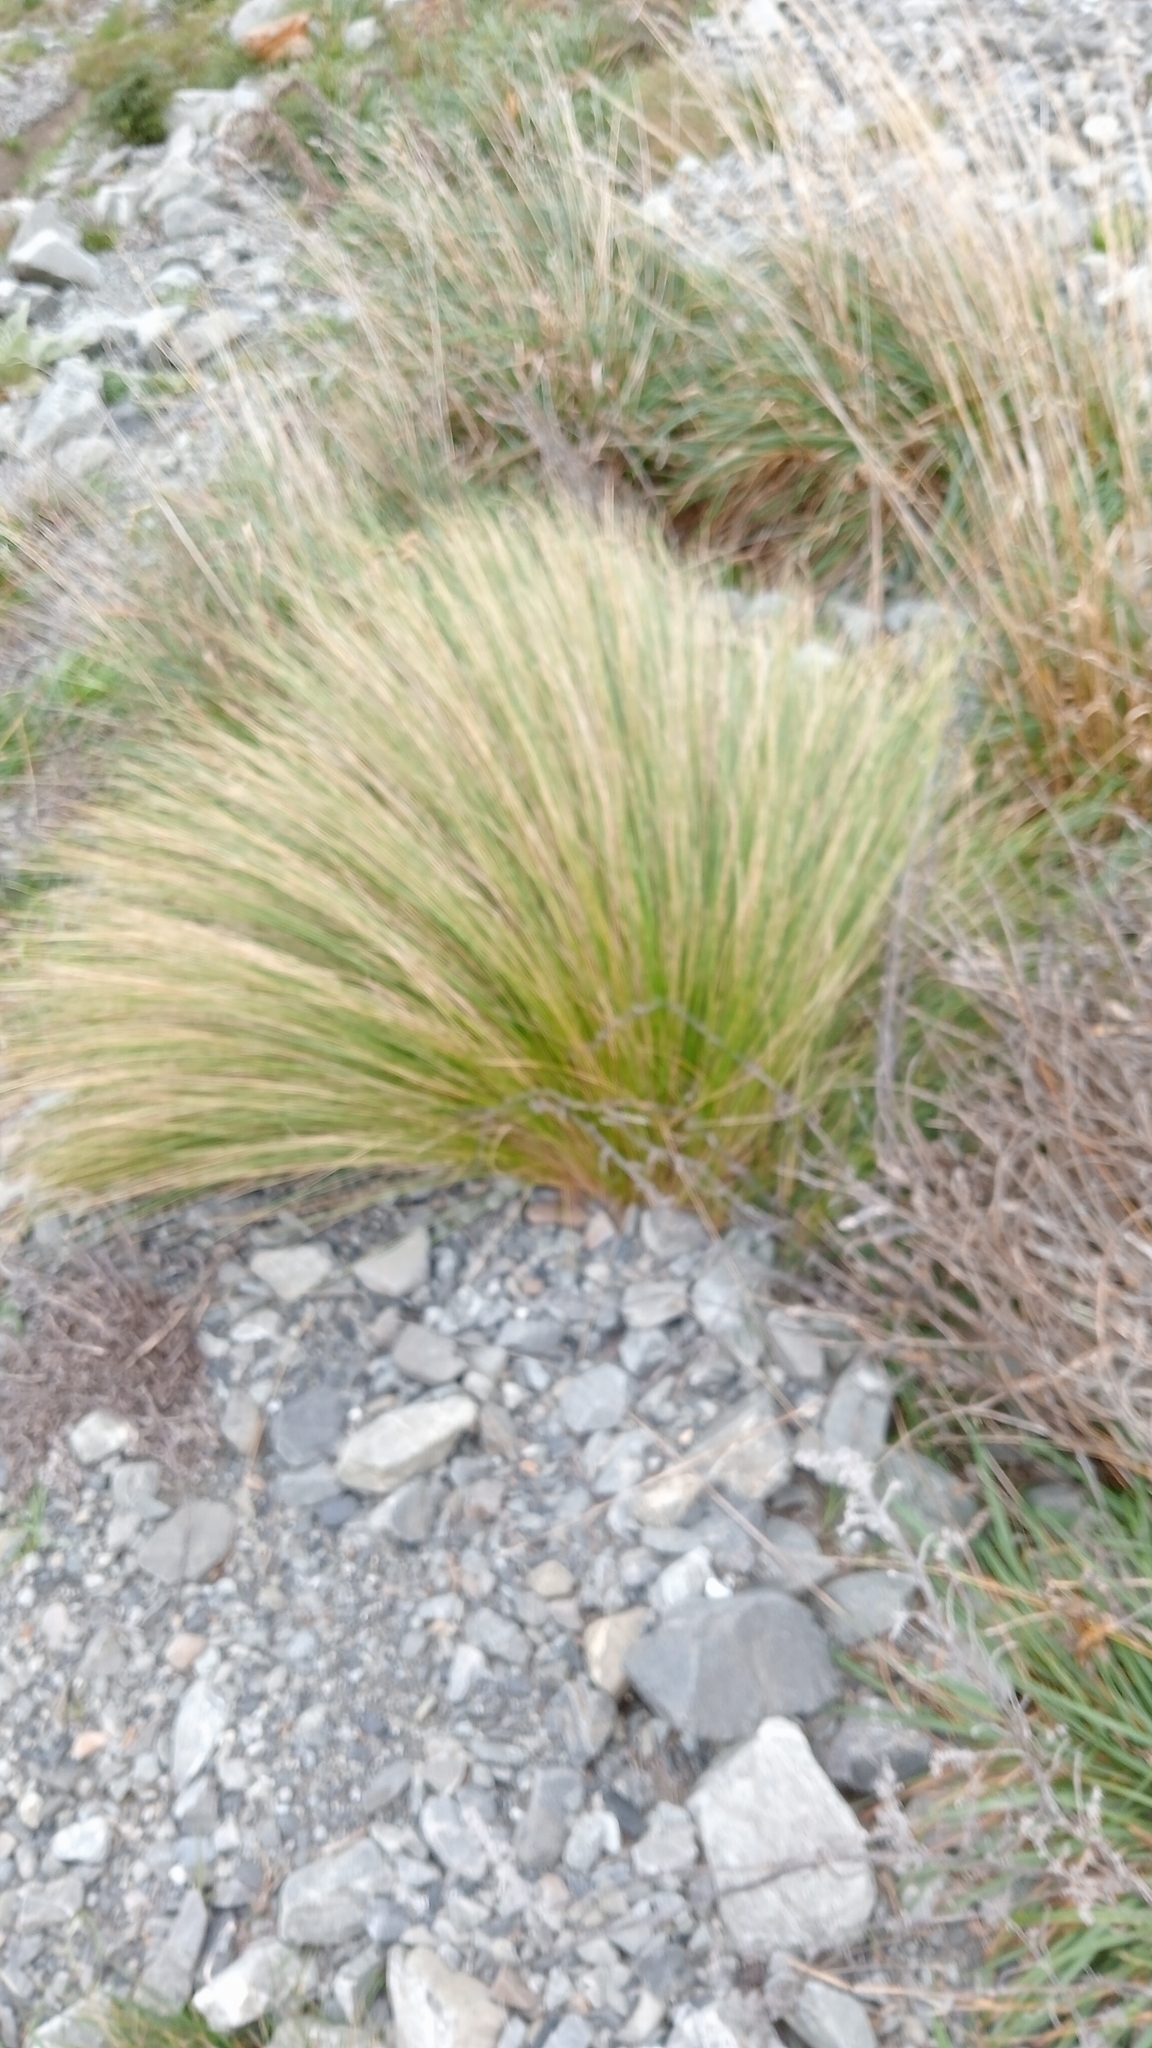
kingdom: Plantae
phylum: Tracheophyta
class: Liliopsida
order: Poales
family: Poaceae
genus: Poa
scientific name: Poa cita
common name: Silver tussock
